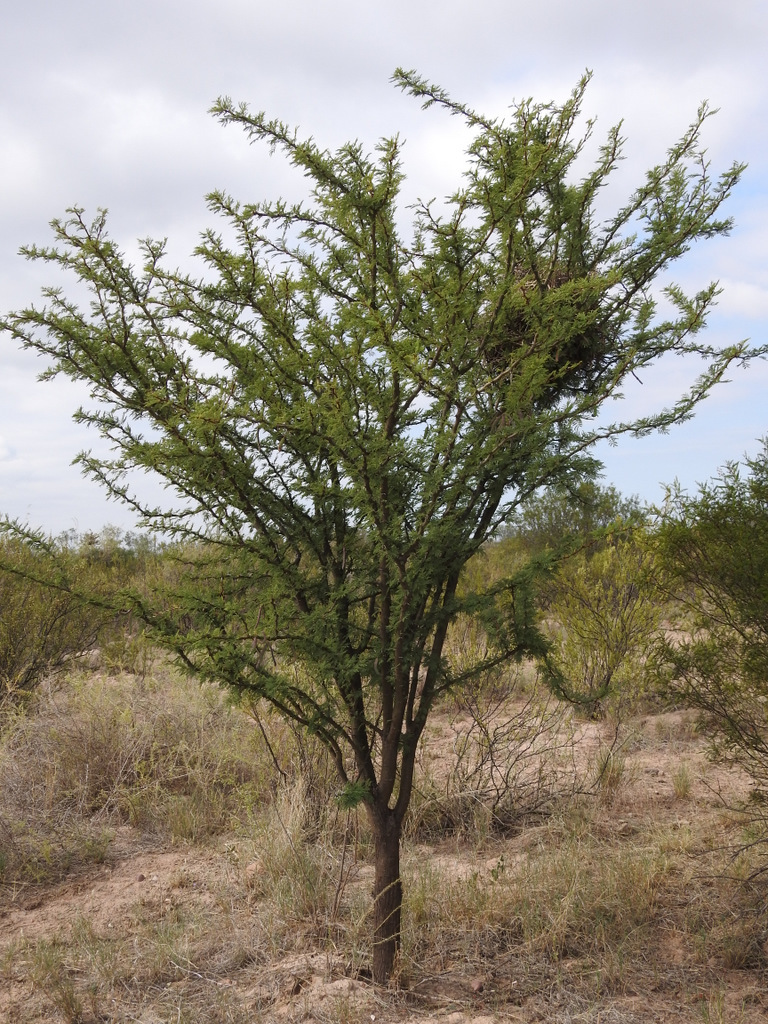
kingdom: Plantae
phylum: Tracheophyta
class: Magnoliopsida
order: Fabales
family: Fabaceae
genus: Vachellia
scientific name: Vachellia astringens
